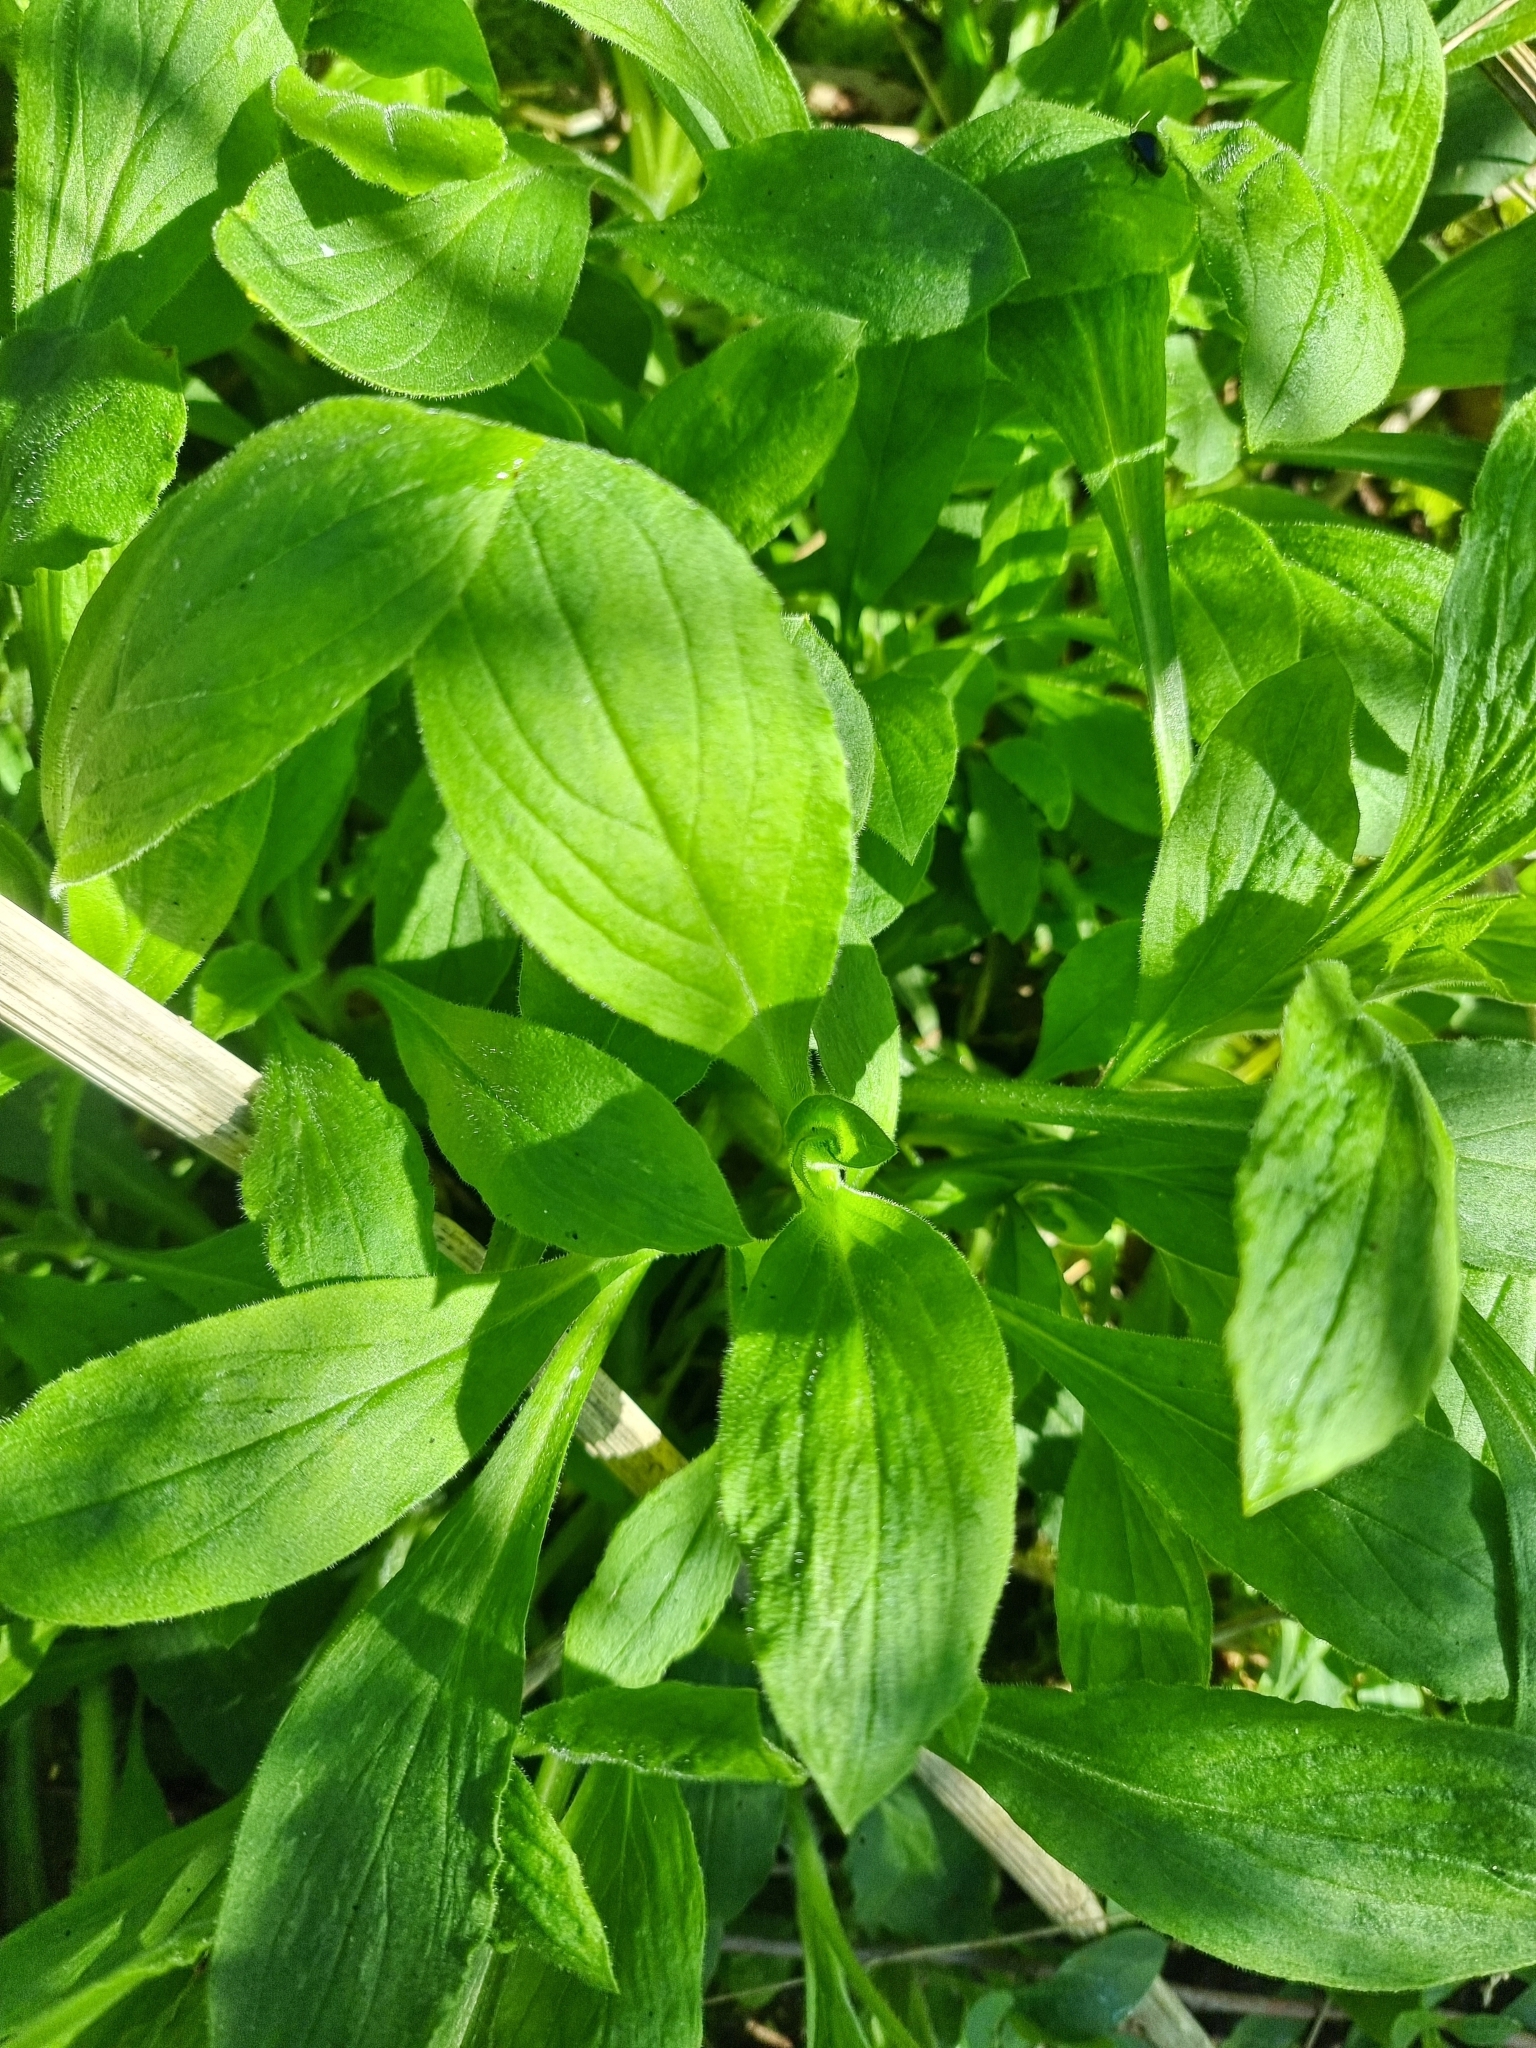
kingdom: Plantae
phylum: Tracheophyta
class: Magnoliopsida
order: Caryophyllales
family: Caryophyllaceae
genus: Silene
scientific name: Silene dioica
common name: Red campion
